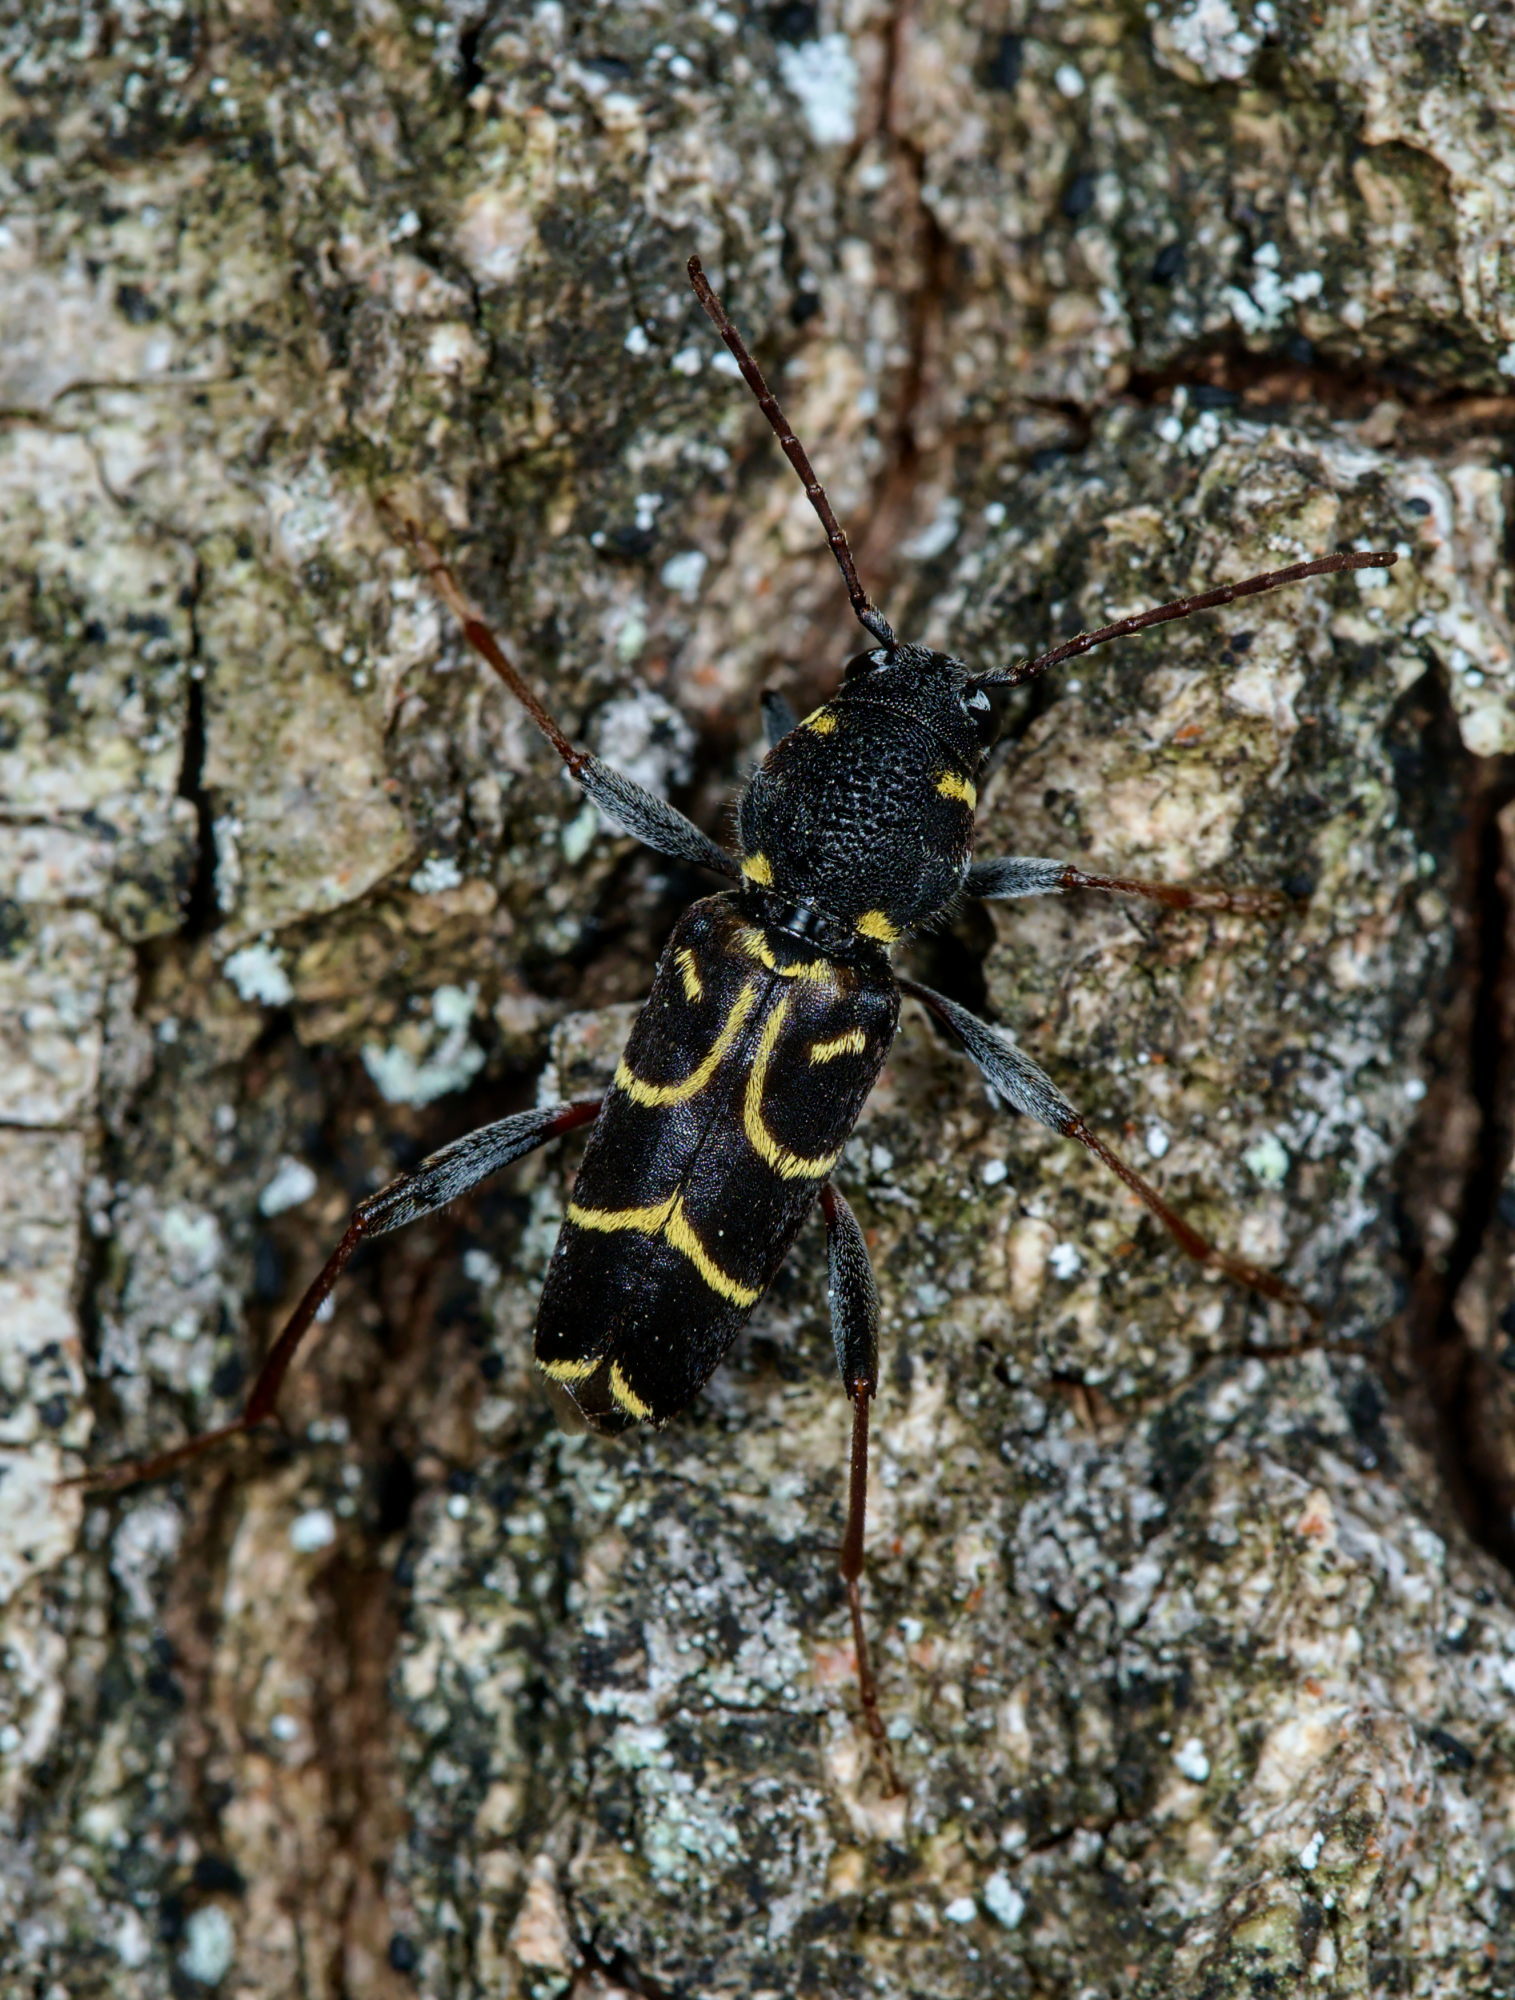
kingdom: Animalia
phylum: Arthropoda
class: Insecta
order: Coleoptera
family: Cerambycidae
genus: Xylotrechus
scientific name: Xylotrechus antilope
